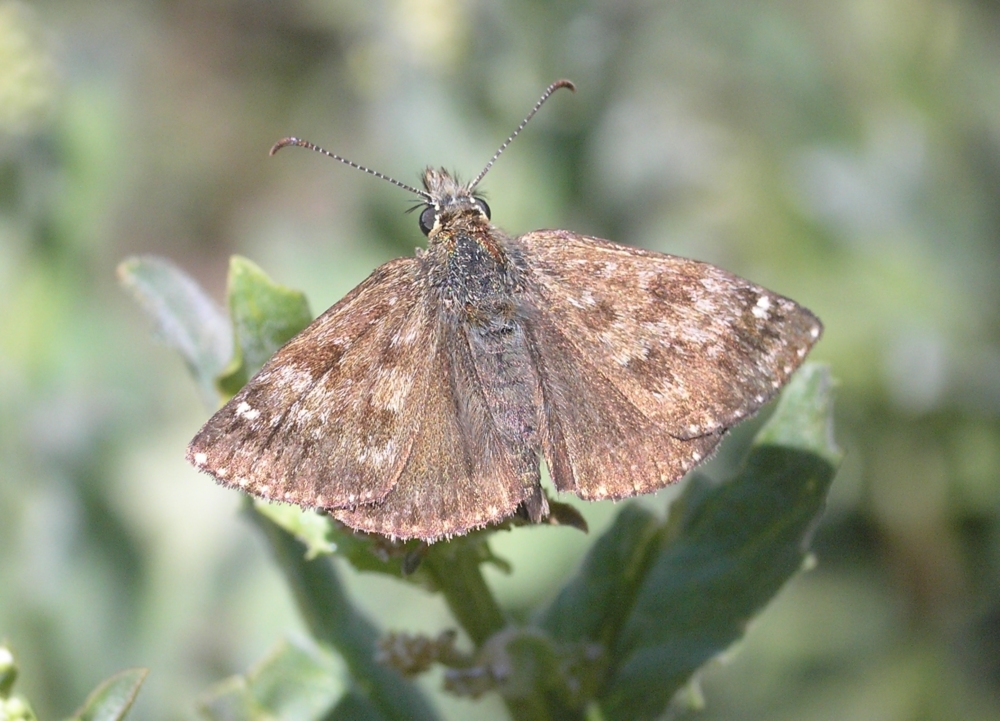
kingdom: Animalia
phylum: Arthropoda
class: Insecta
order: Lepidoptera
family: Hesperiidae
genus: Erynnis
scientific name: Erynnis tages
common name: Dingy skipper
